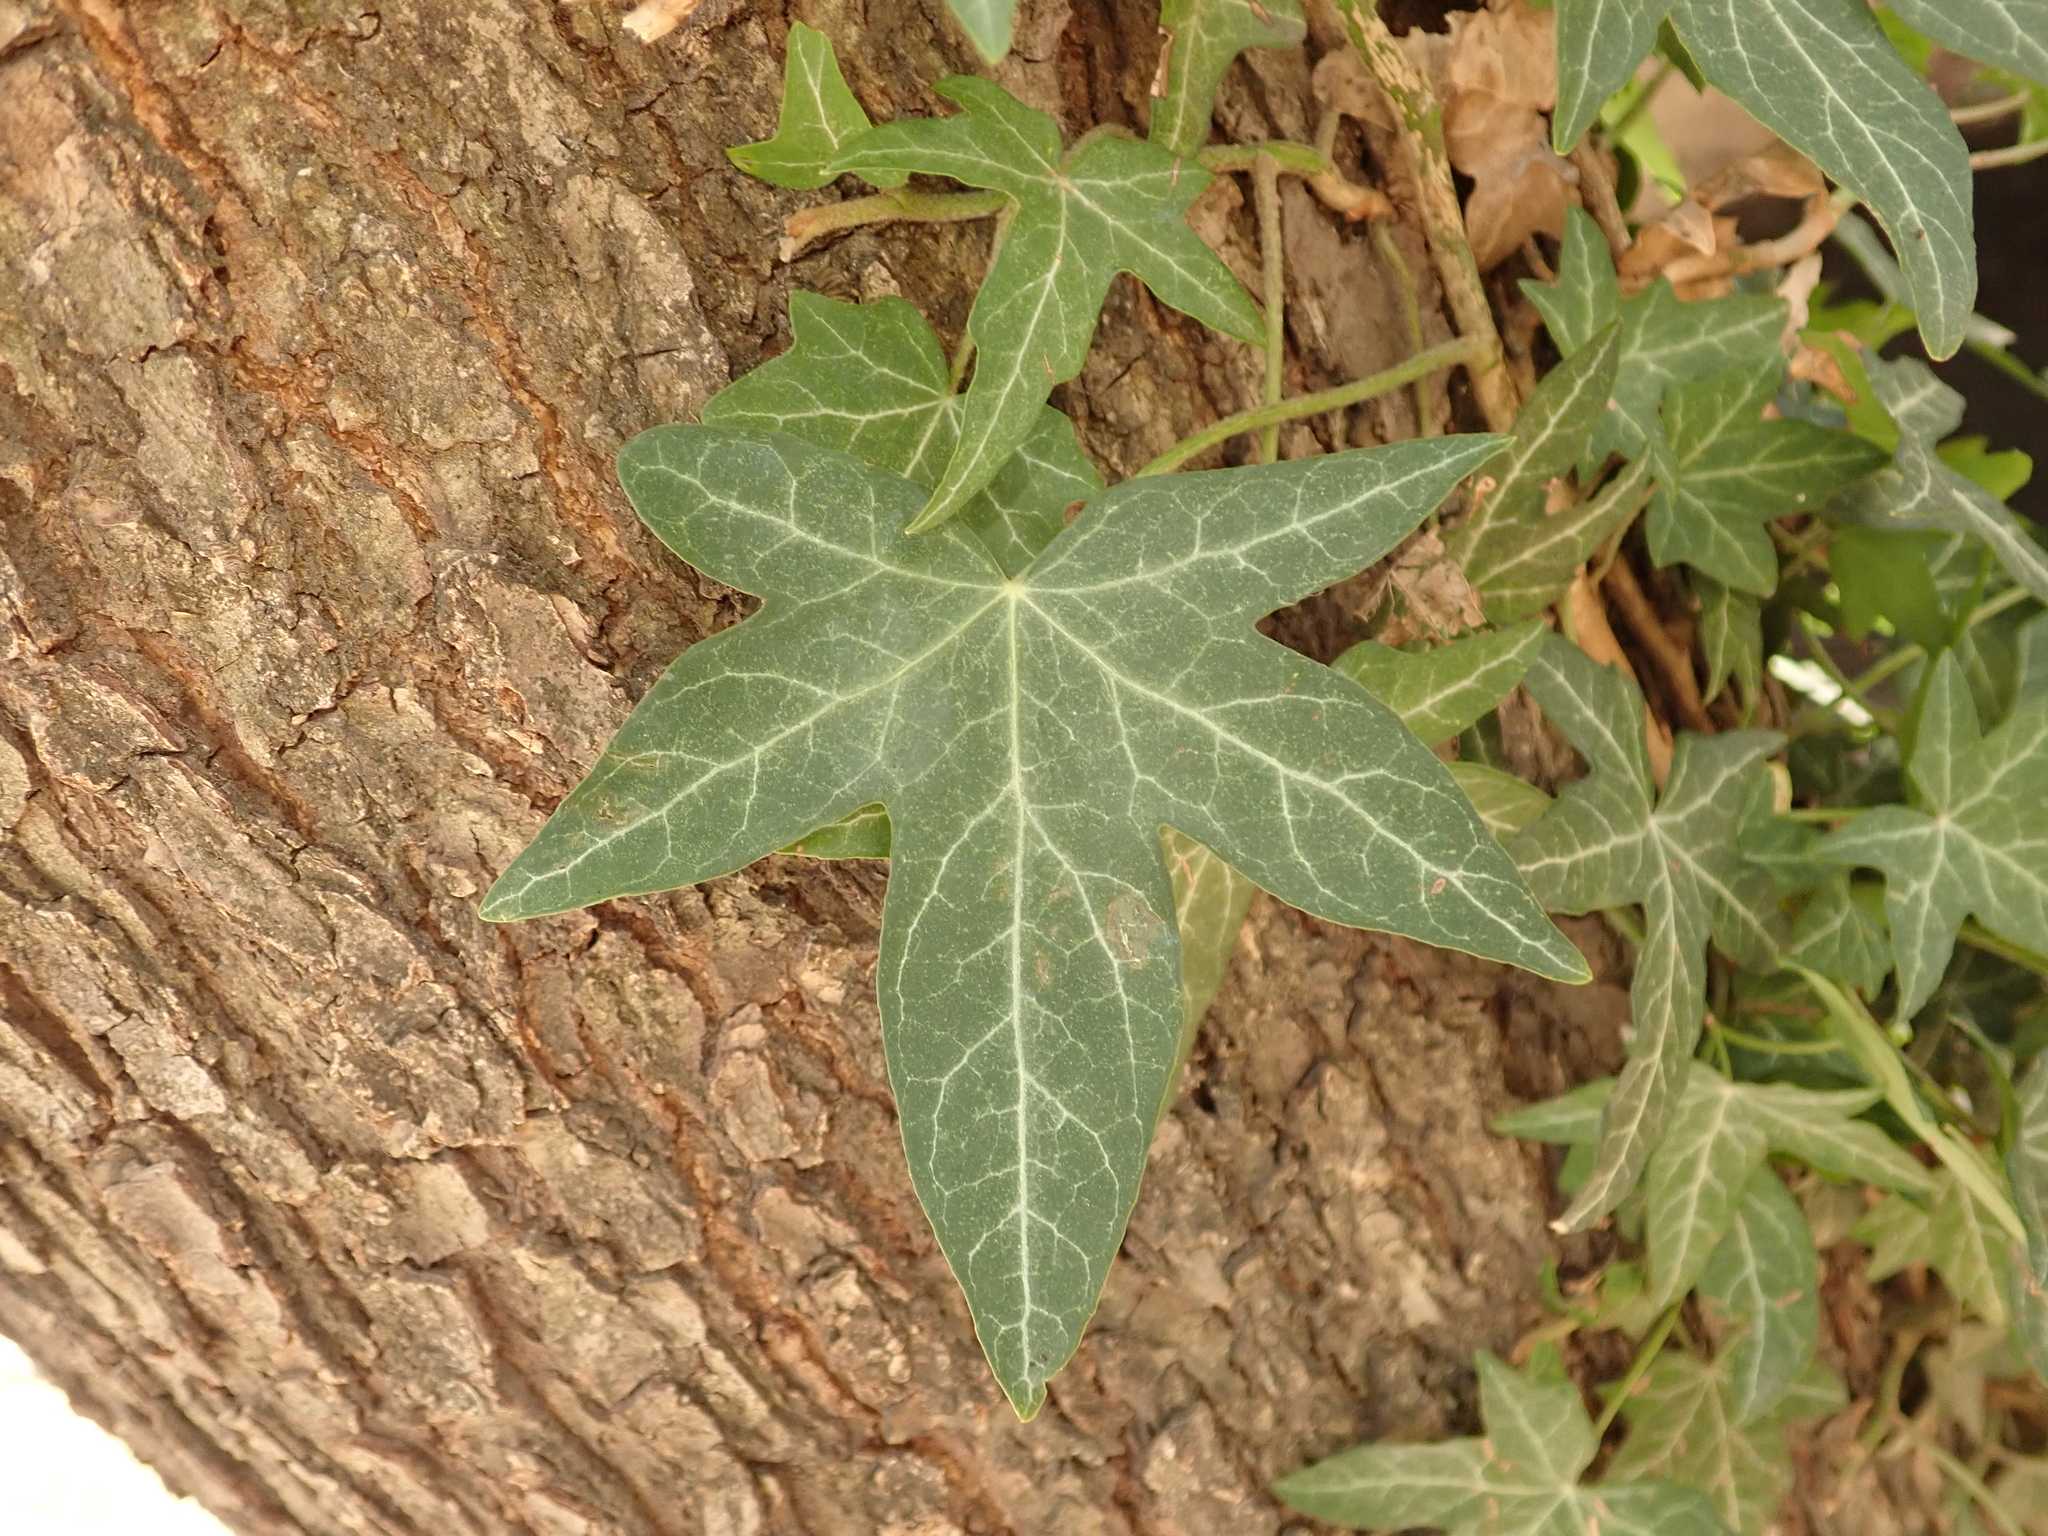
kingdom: Plantae
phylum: Tracheophyta
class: Magnoliopsida
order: Apiales
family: Araliaceae
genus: Hedera
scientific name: Hedera helix
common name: Ivy
